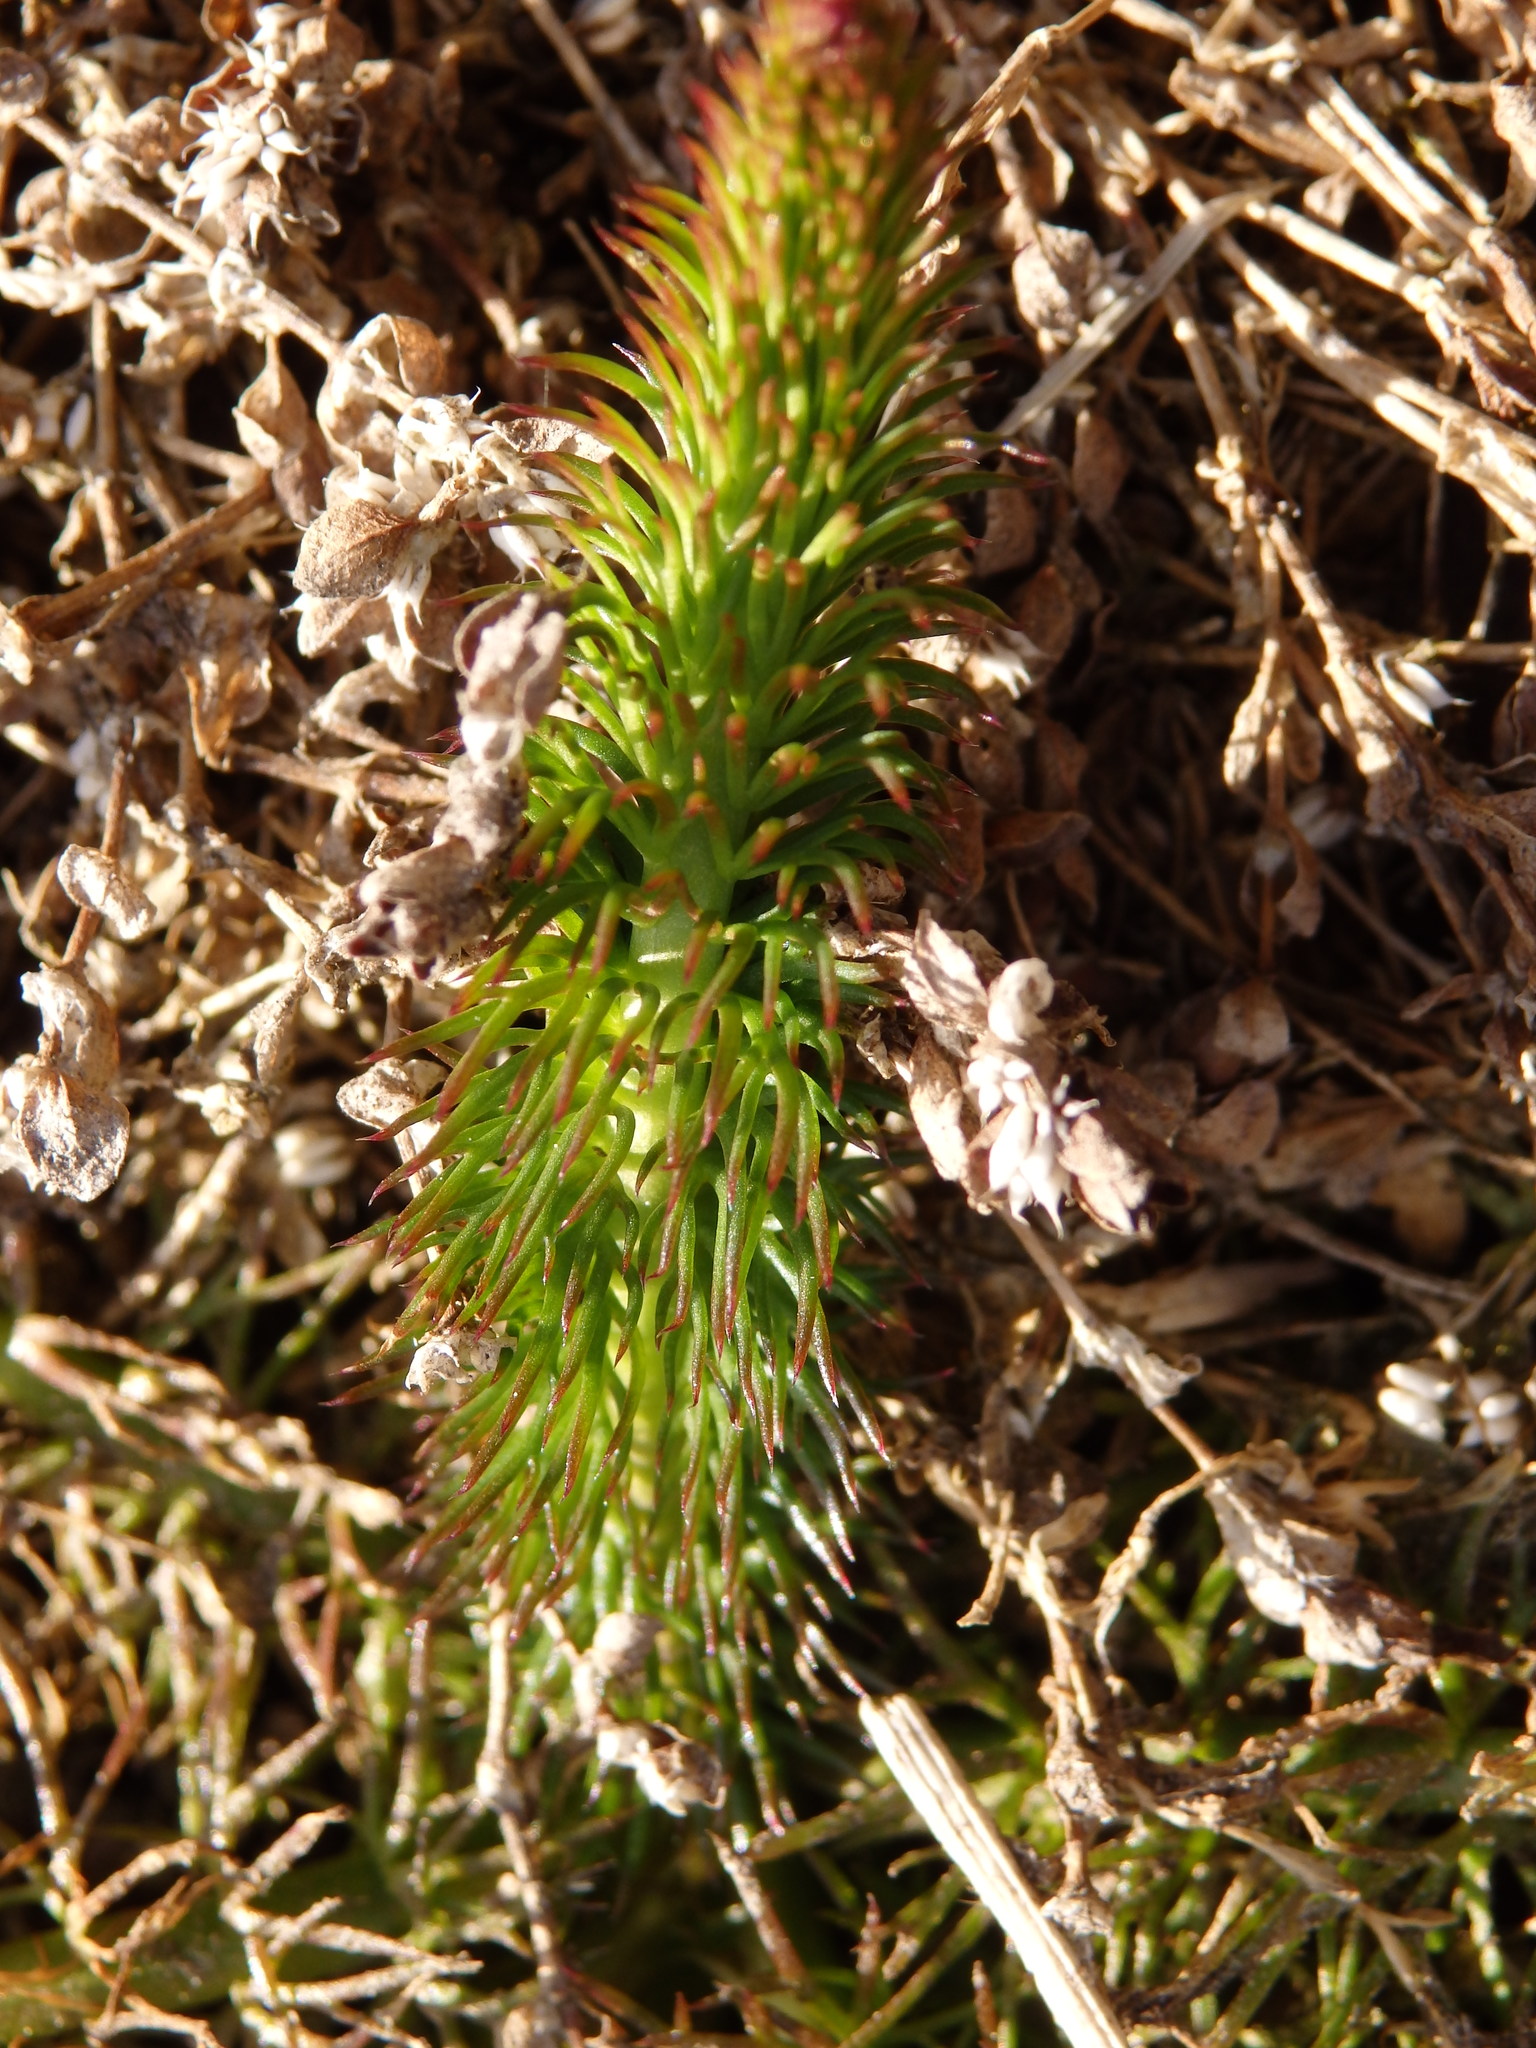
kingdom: Plantae
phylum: Tracheophyta
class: Magnoliopsida
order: Apiales
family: Apiaceae
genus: Trocdaris
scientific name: Trocdaris verticillatum
